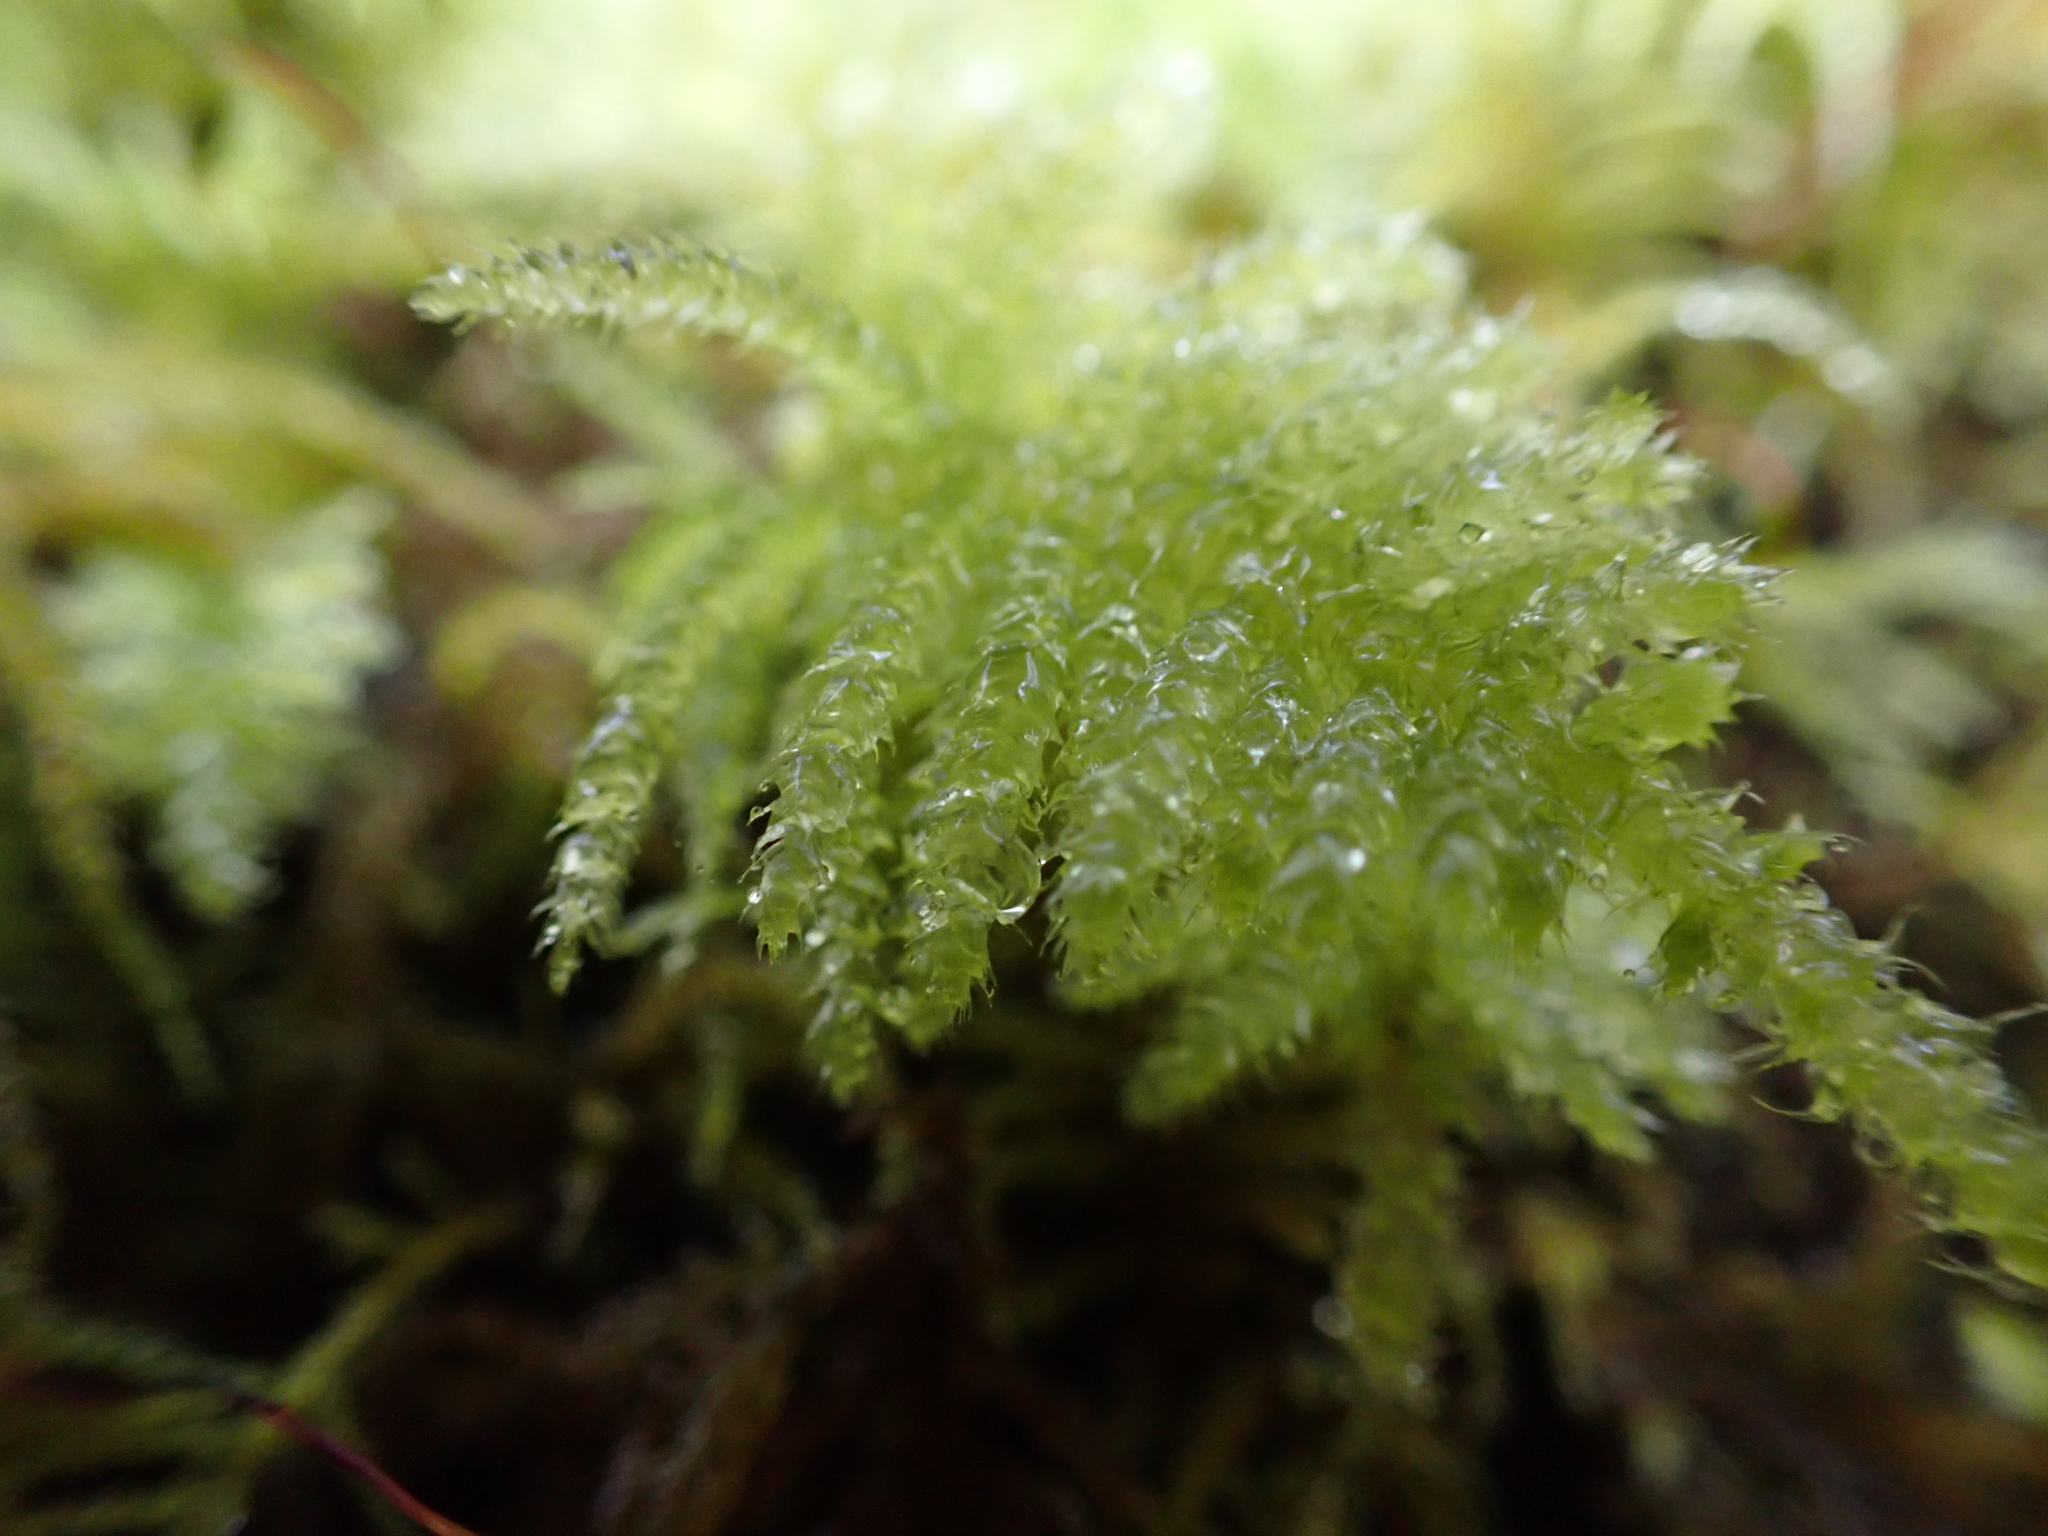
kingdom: Plantae
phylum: Bryophyta
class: Bryopsida
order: Hypnales
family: Brachytheciaceae
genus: Kindbergia
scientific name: Kindbergia oregana
